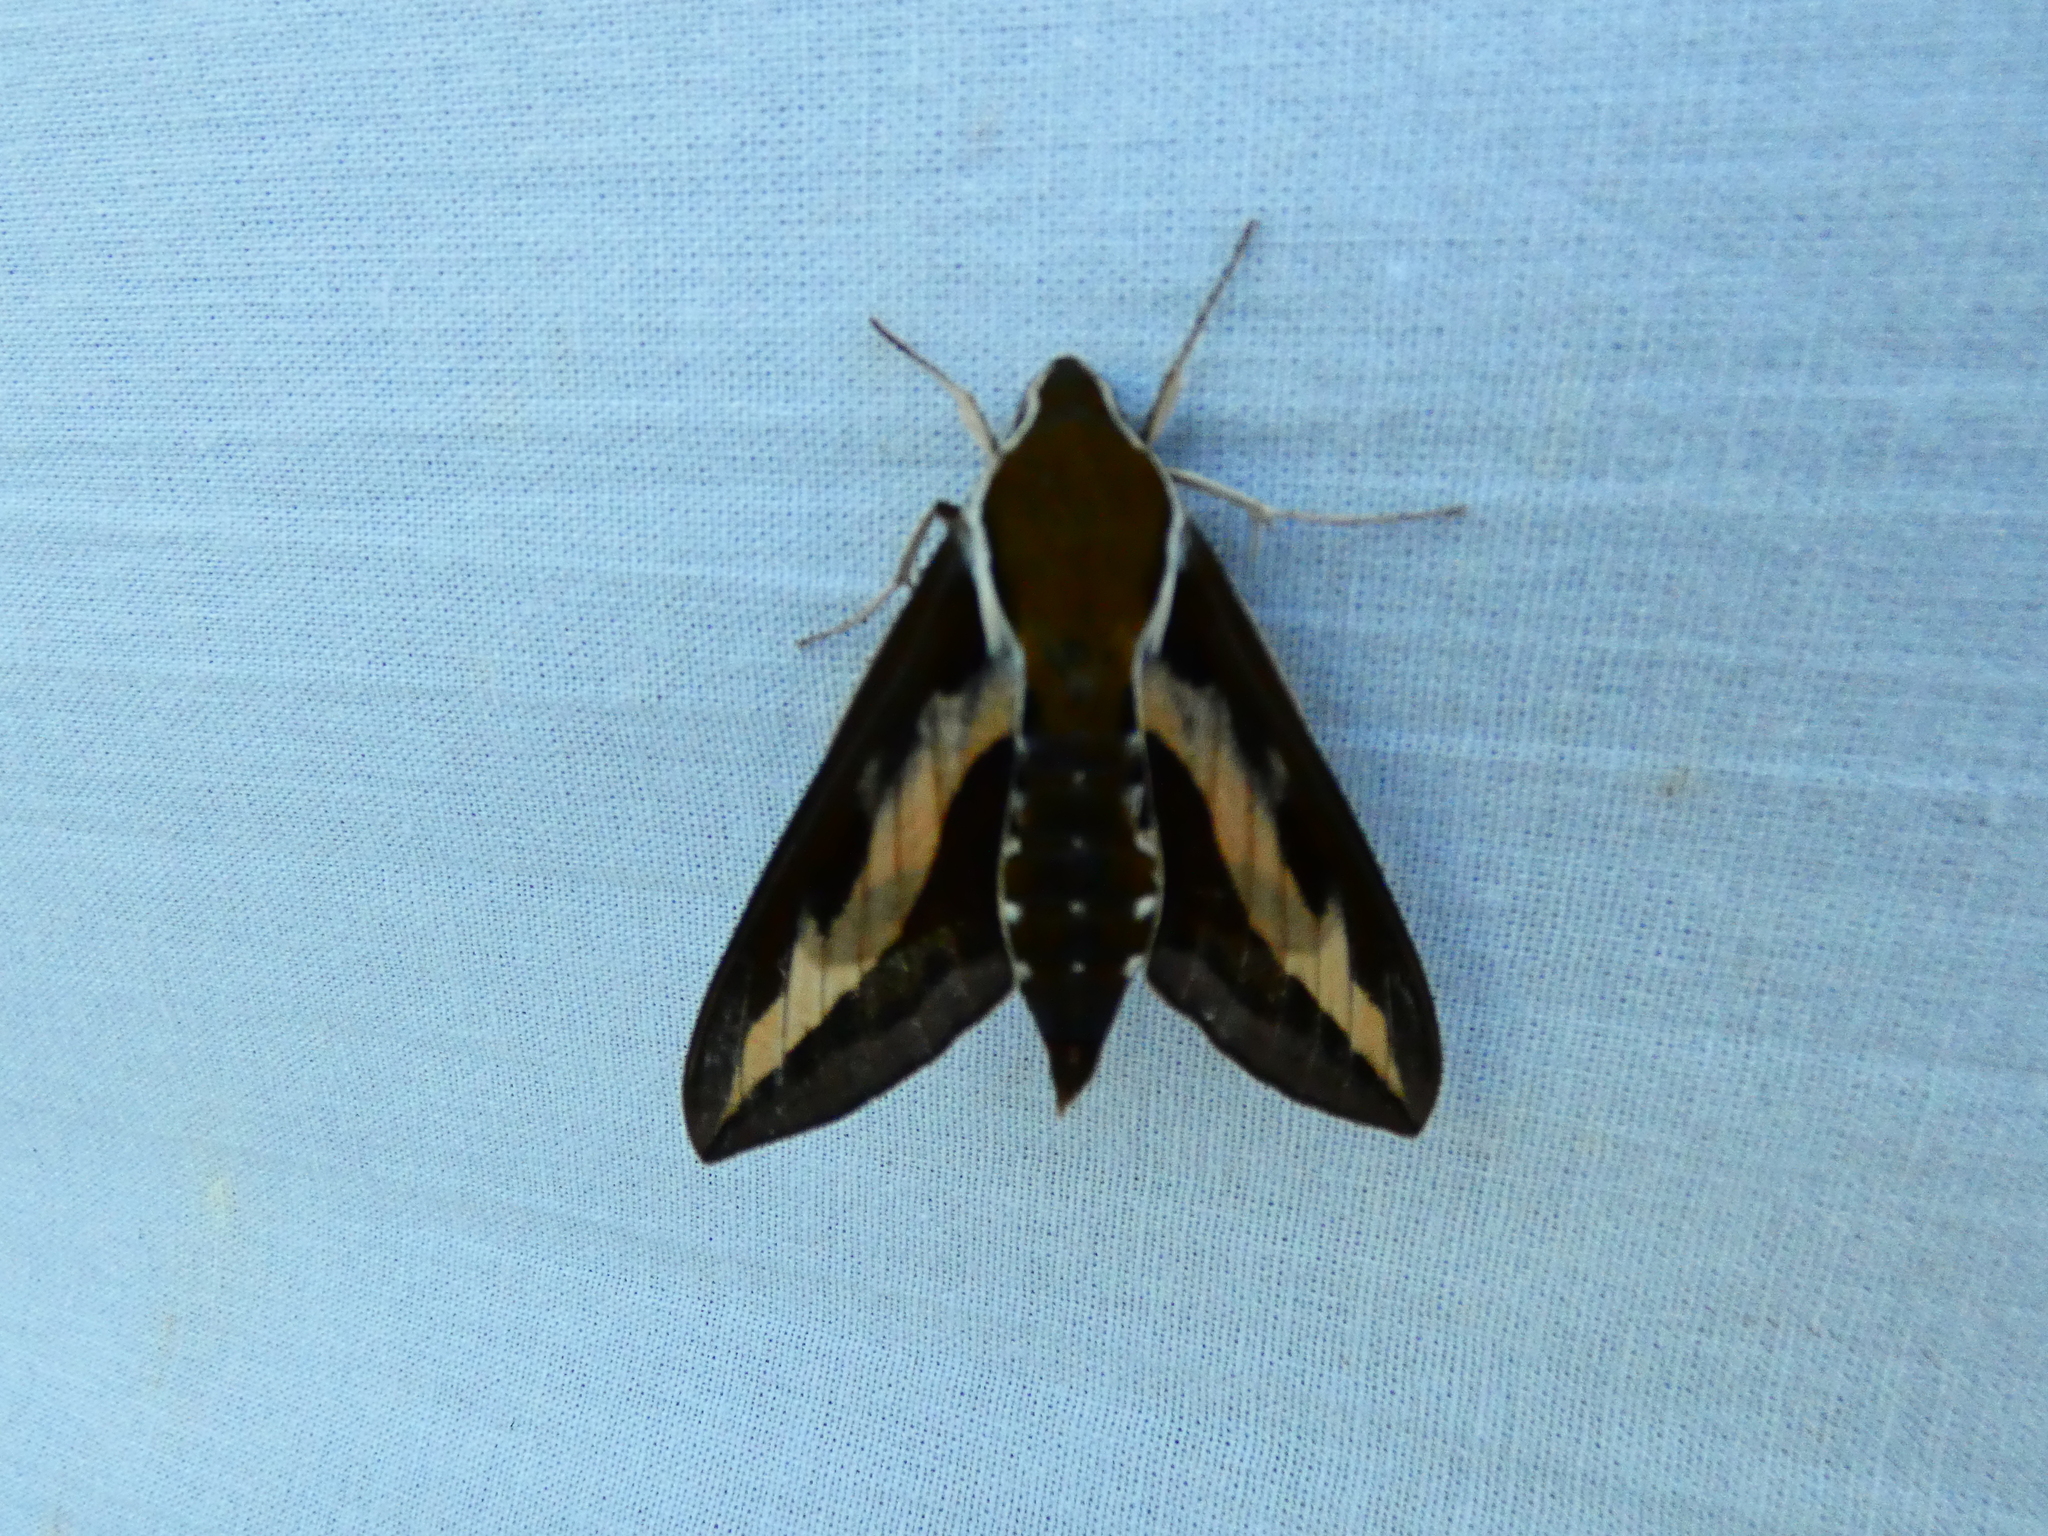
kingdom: Animalia
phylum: Arthropoda
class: Insecta
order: Lepidoptera
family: Sphingidae
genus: Hyles
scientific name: Hyles gallii
